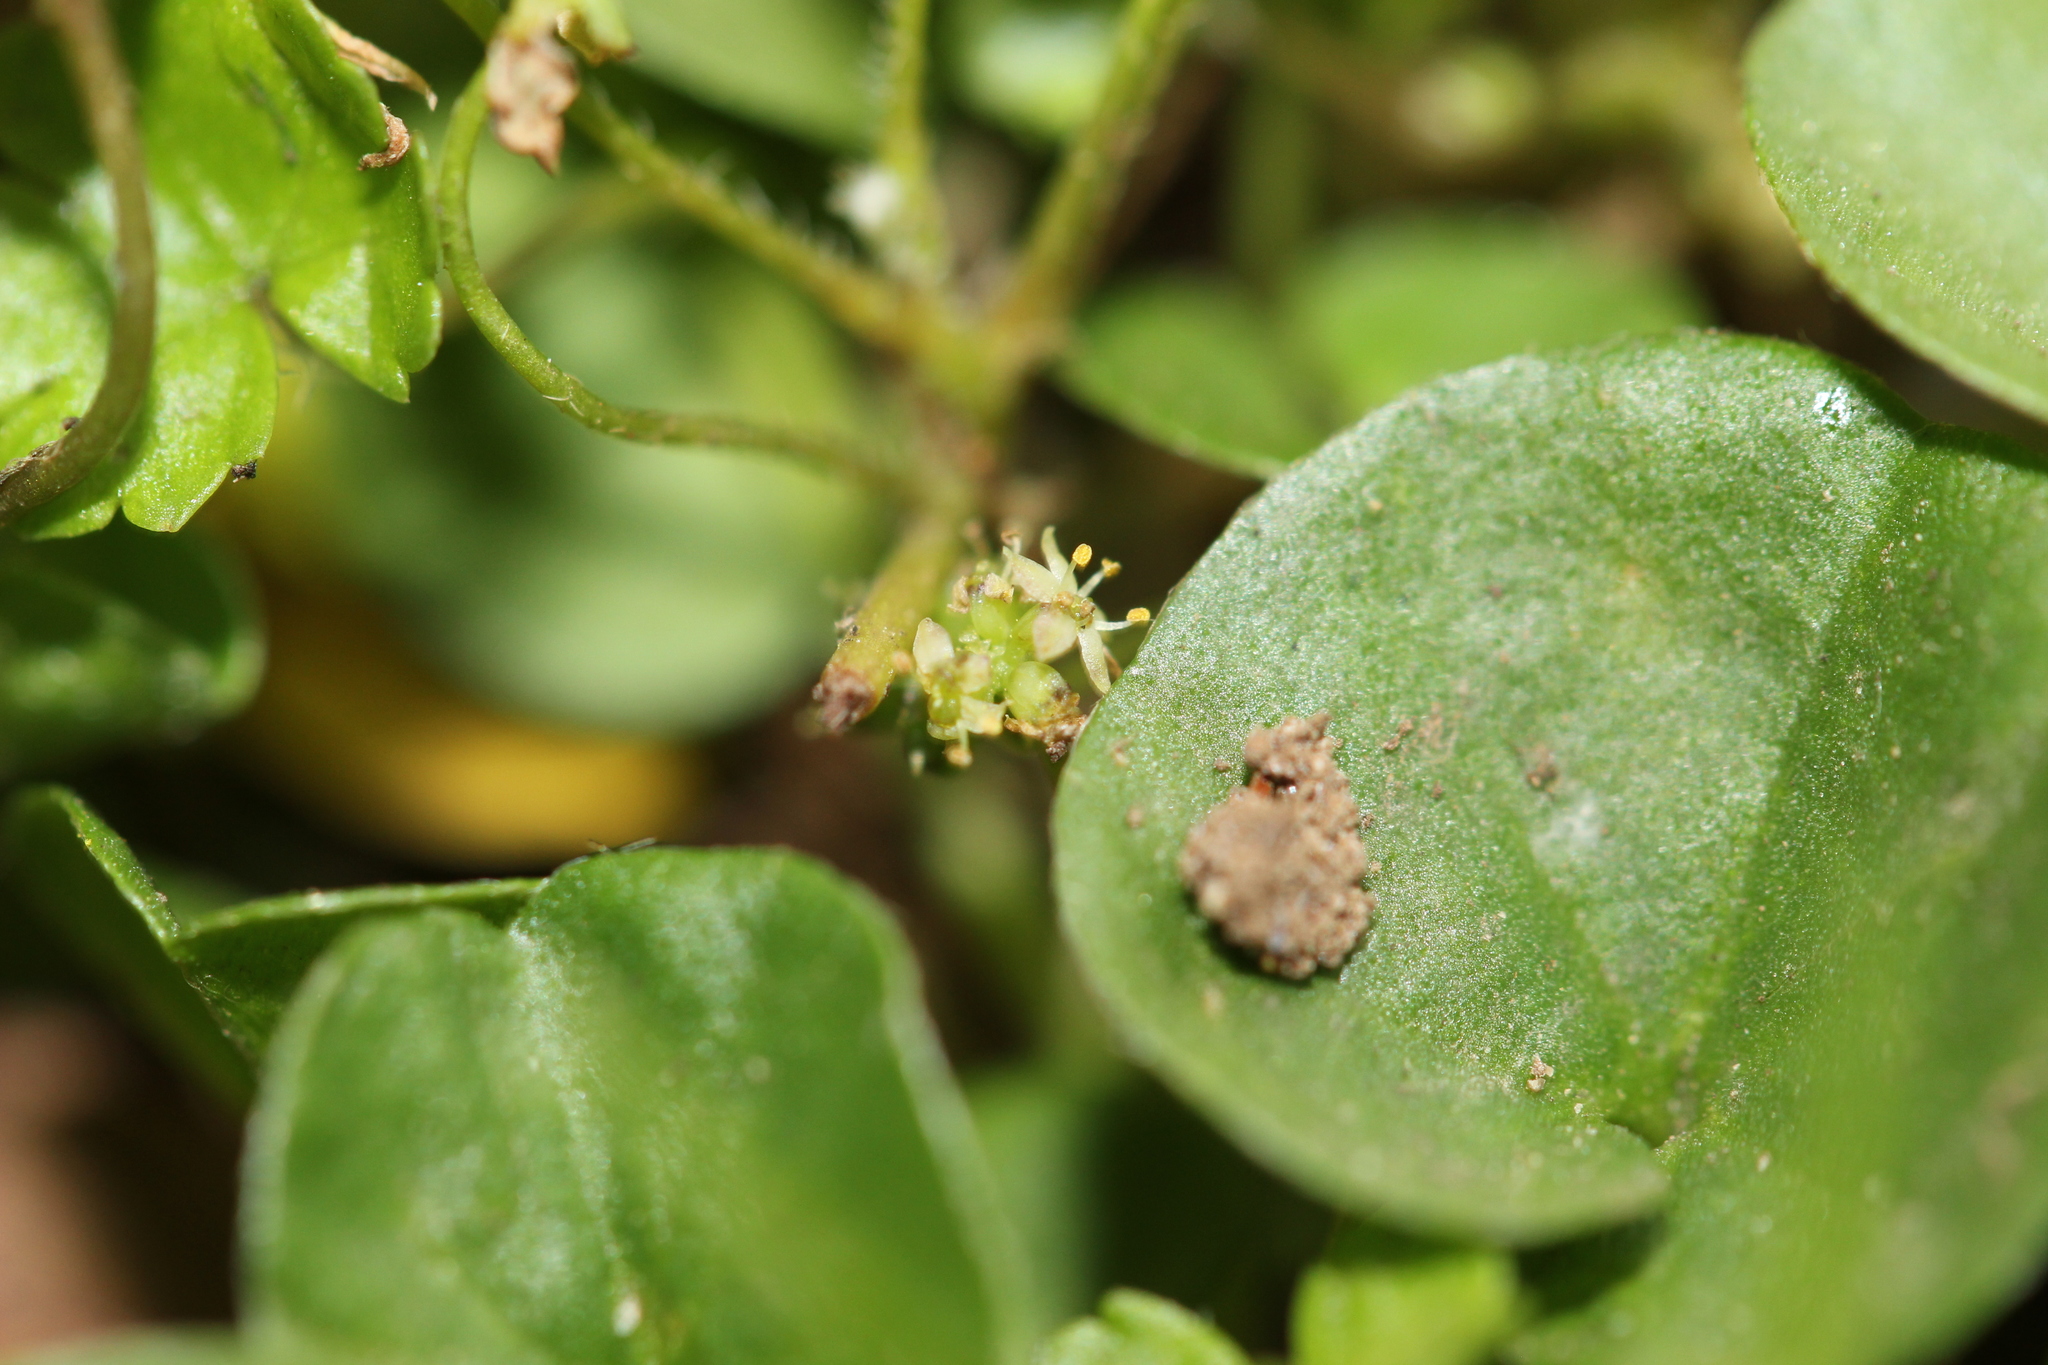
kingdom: Plantae
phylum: Tracheophyta
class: Magnoliopsida
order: Apiales
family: Araliaceae
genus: Hydrocotyle
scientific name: Hydrocotyle microphylla
